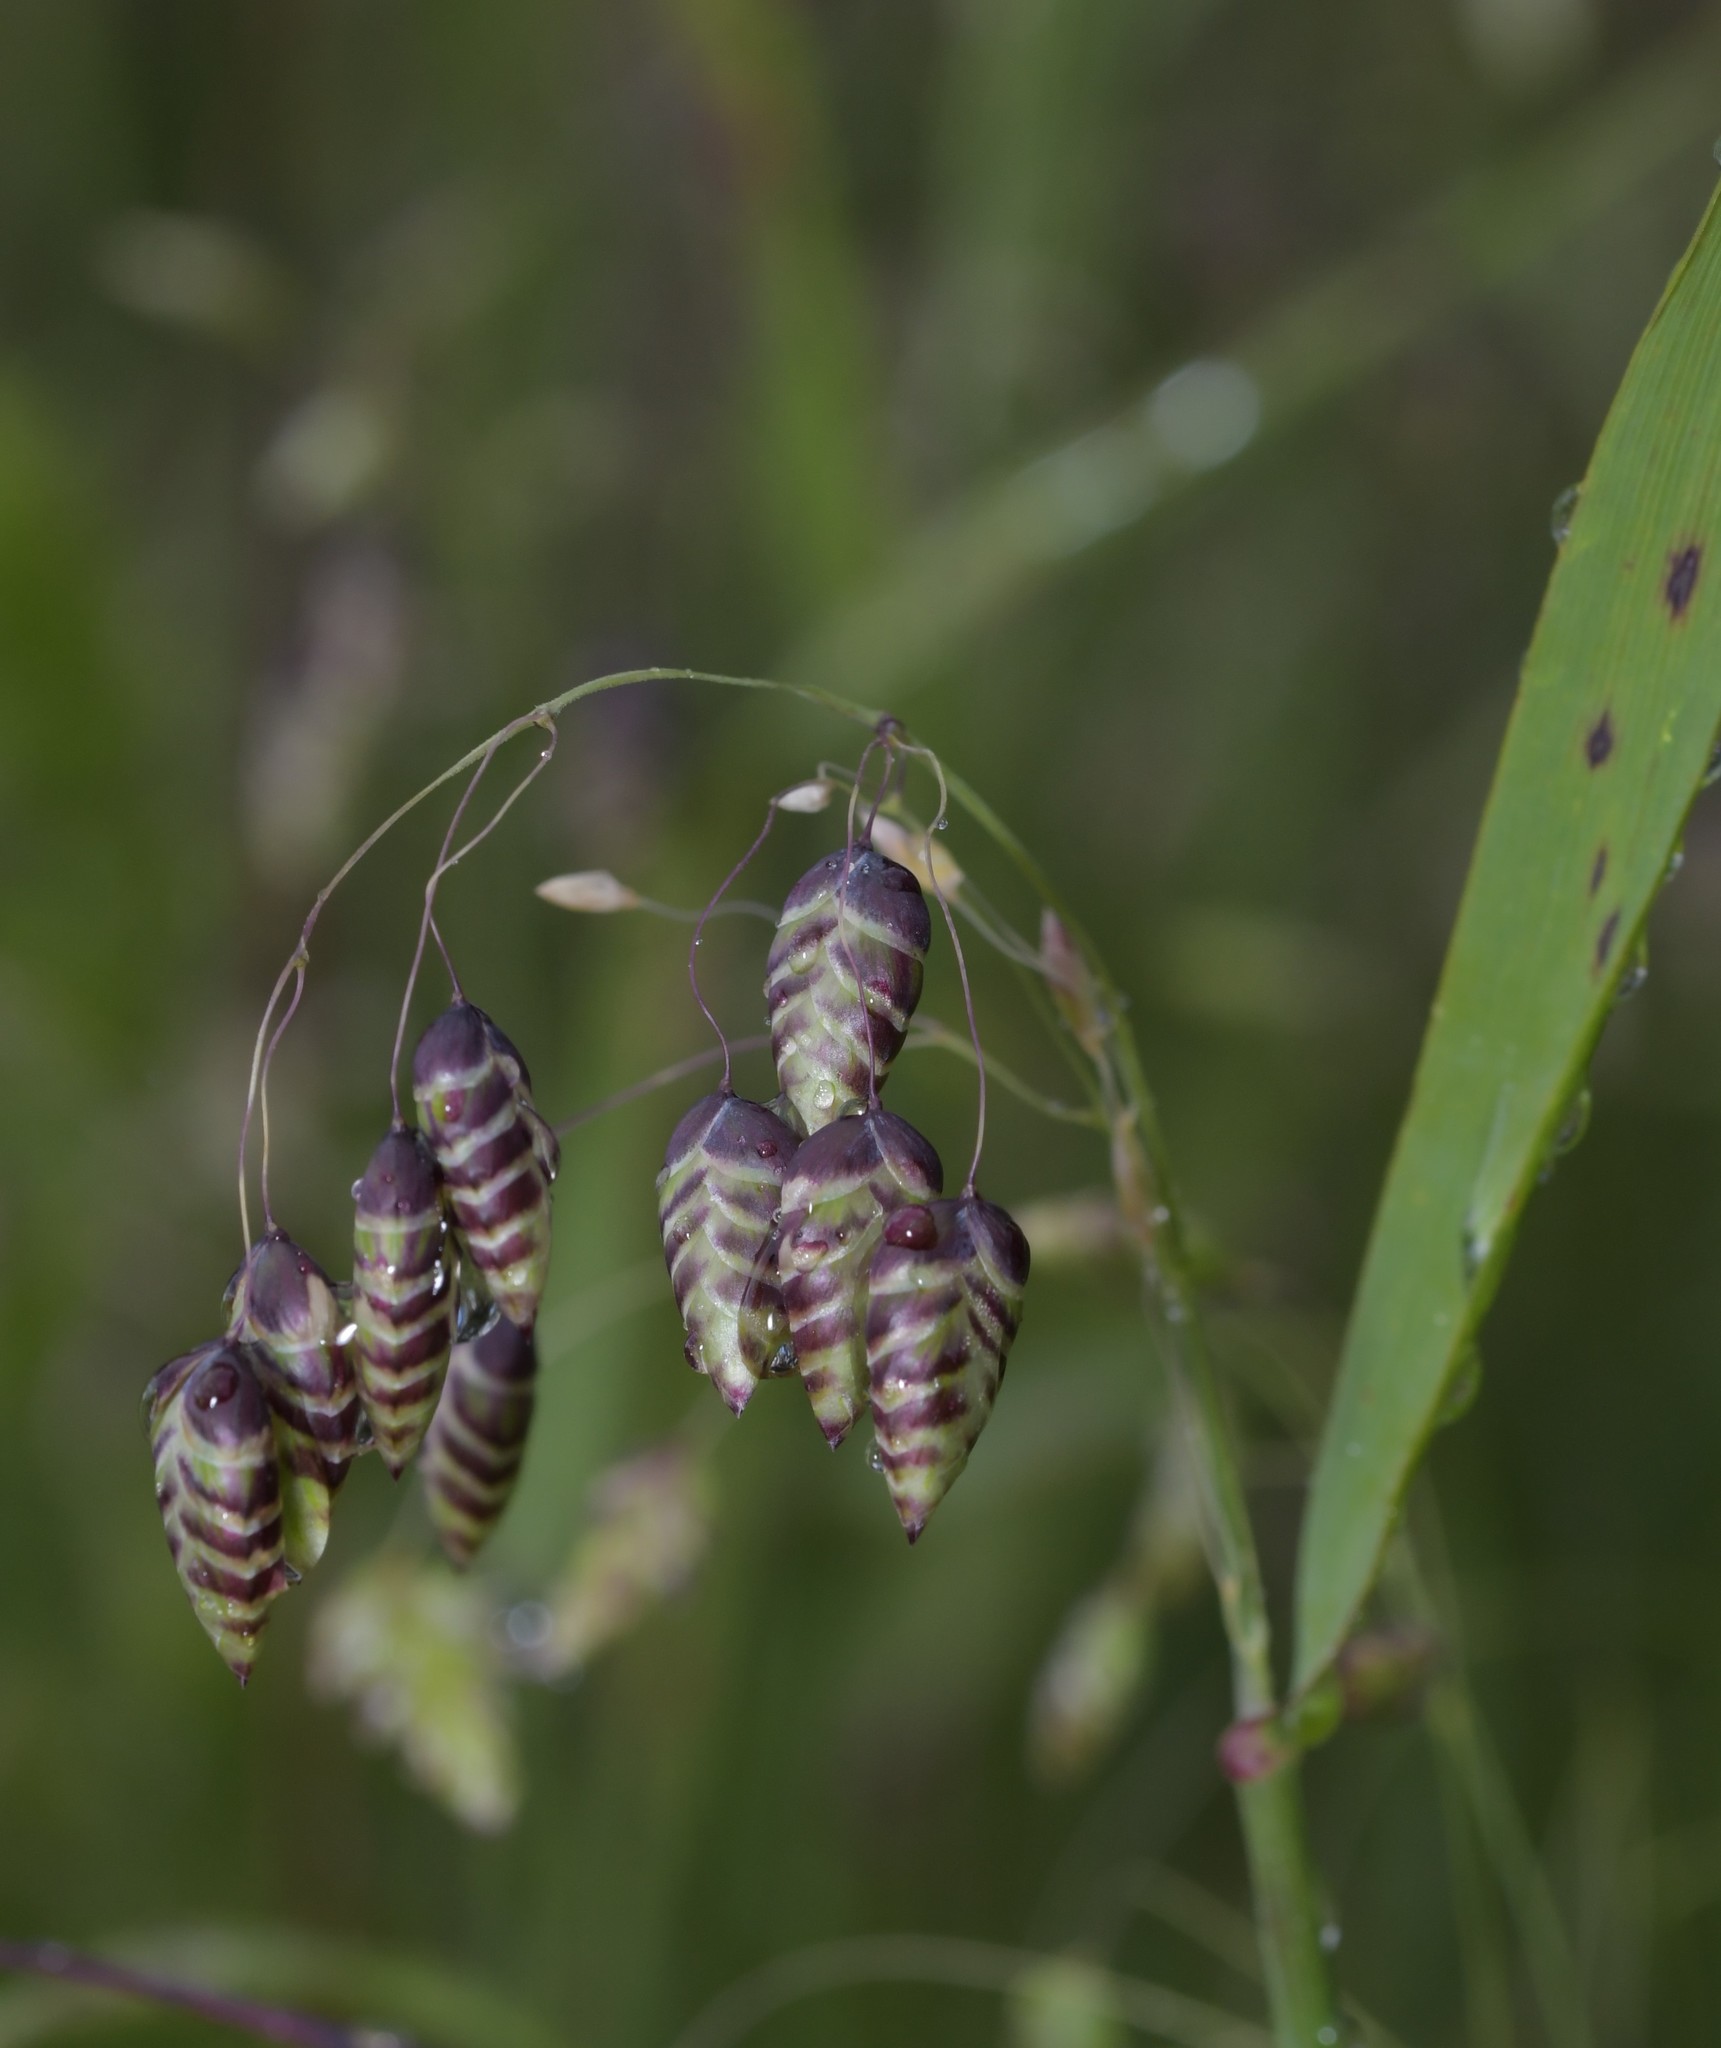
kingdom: Plantae
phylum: Tracheophyta
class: Liliopsida
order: Poales
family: Poaceae
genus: Briza
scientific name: Briza maxima
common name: Big quakinggrass
